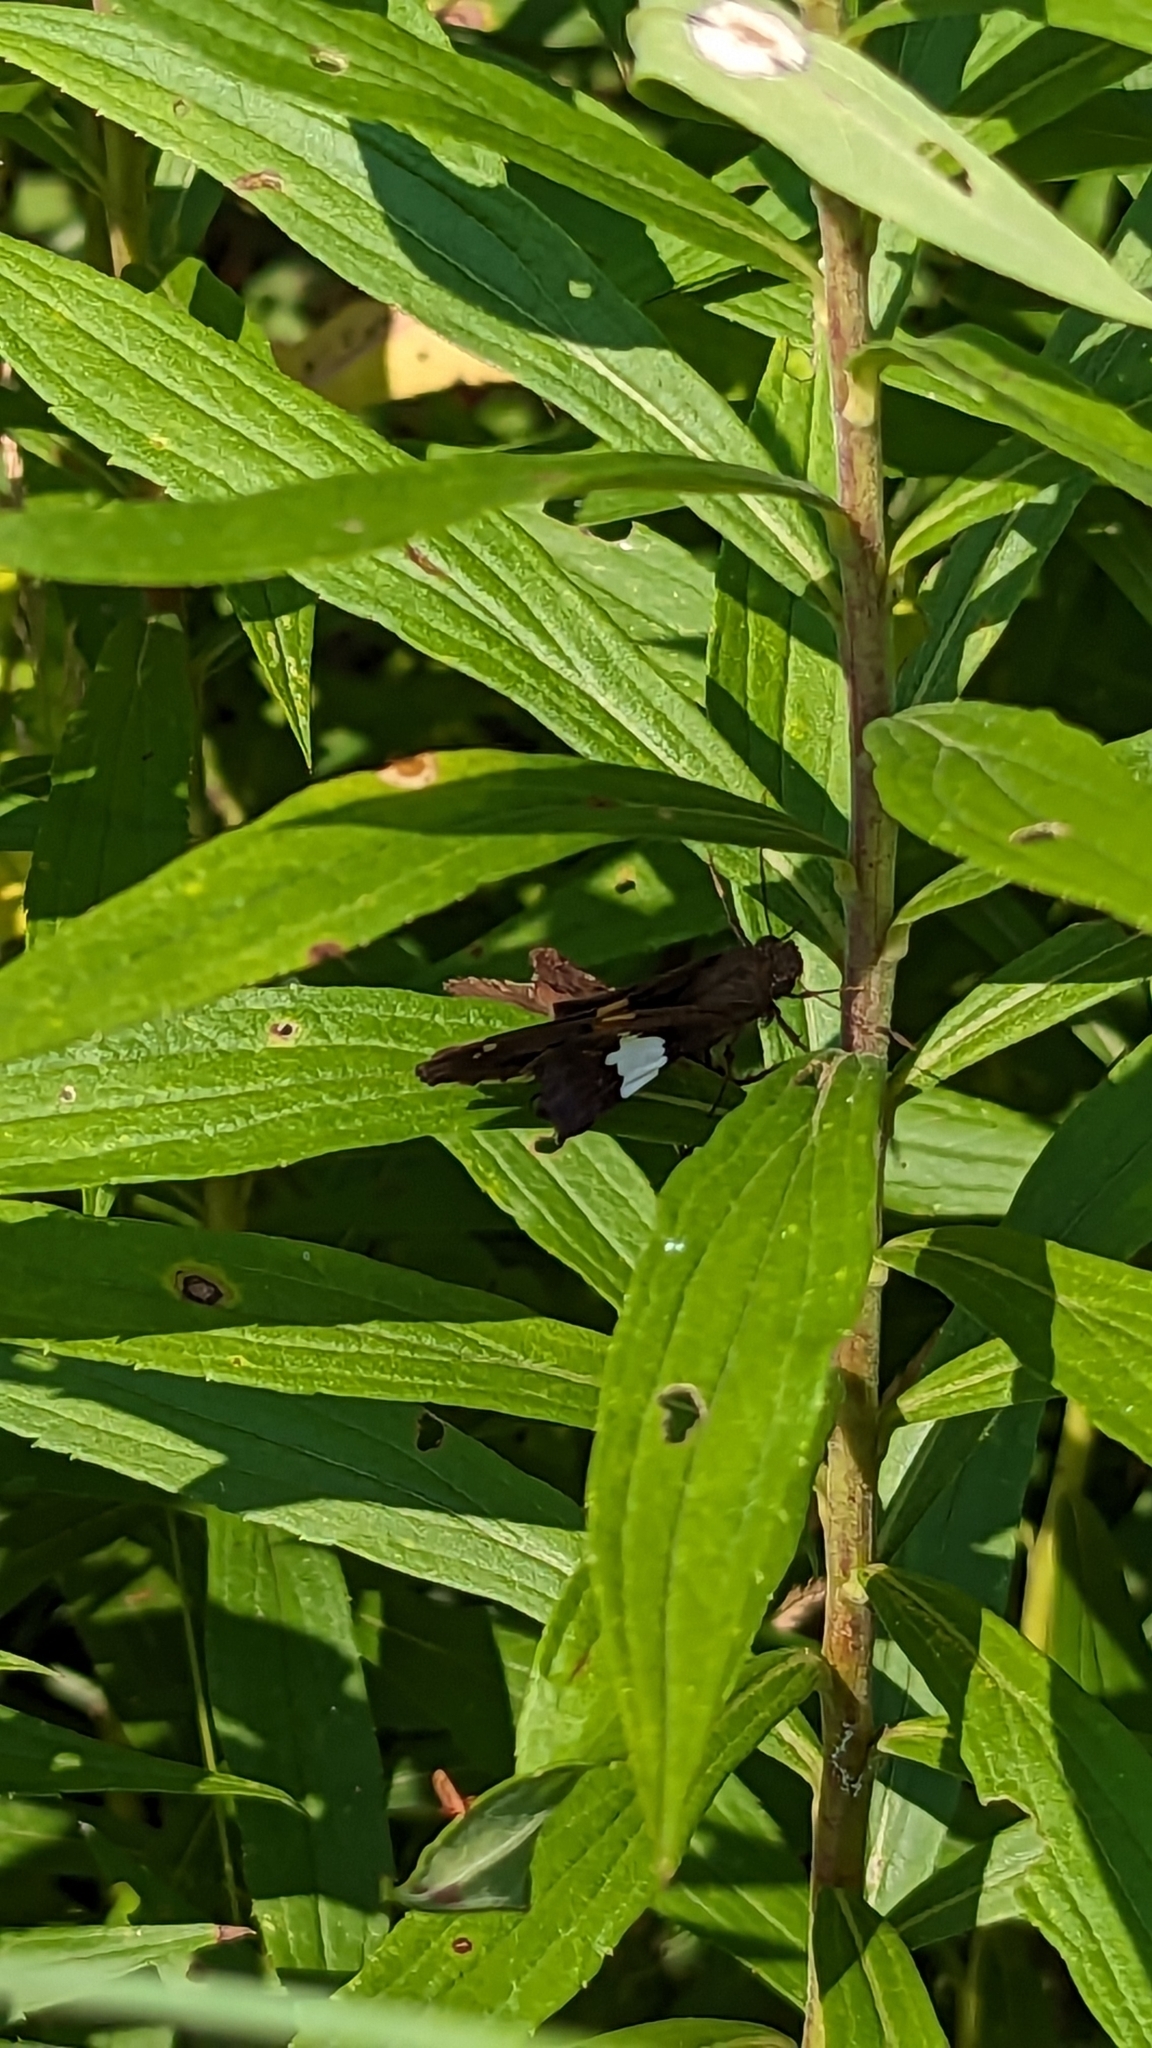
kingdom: Animalia
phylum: Arthropoda
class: Insecta
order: Lepidoptera
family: Hesperiidae
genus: Epargyreus
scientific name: Epargyreus clarus
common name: Silver-spotted skipper
